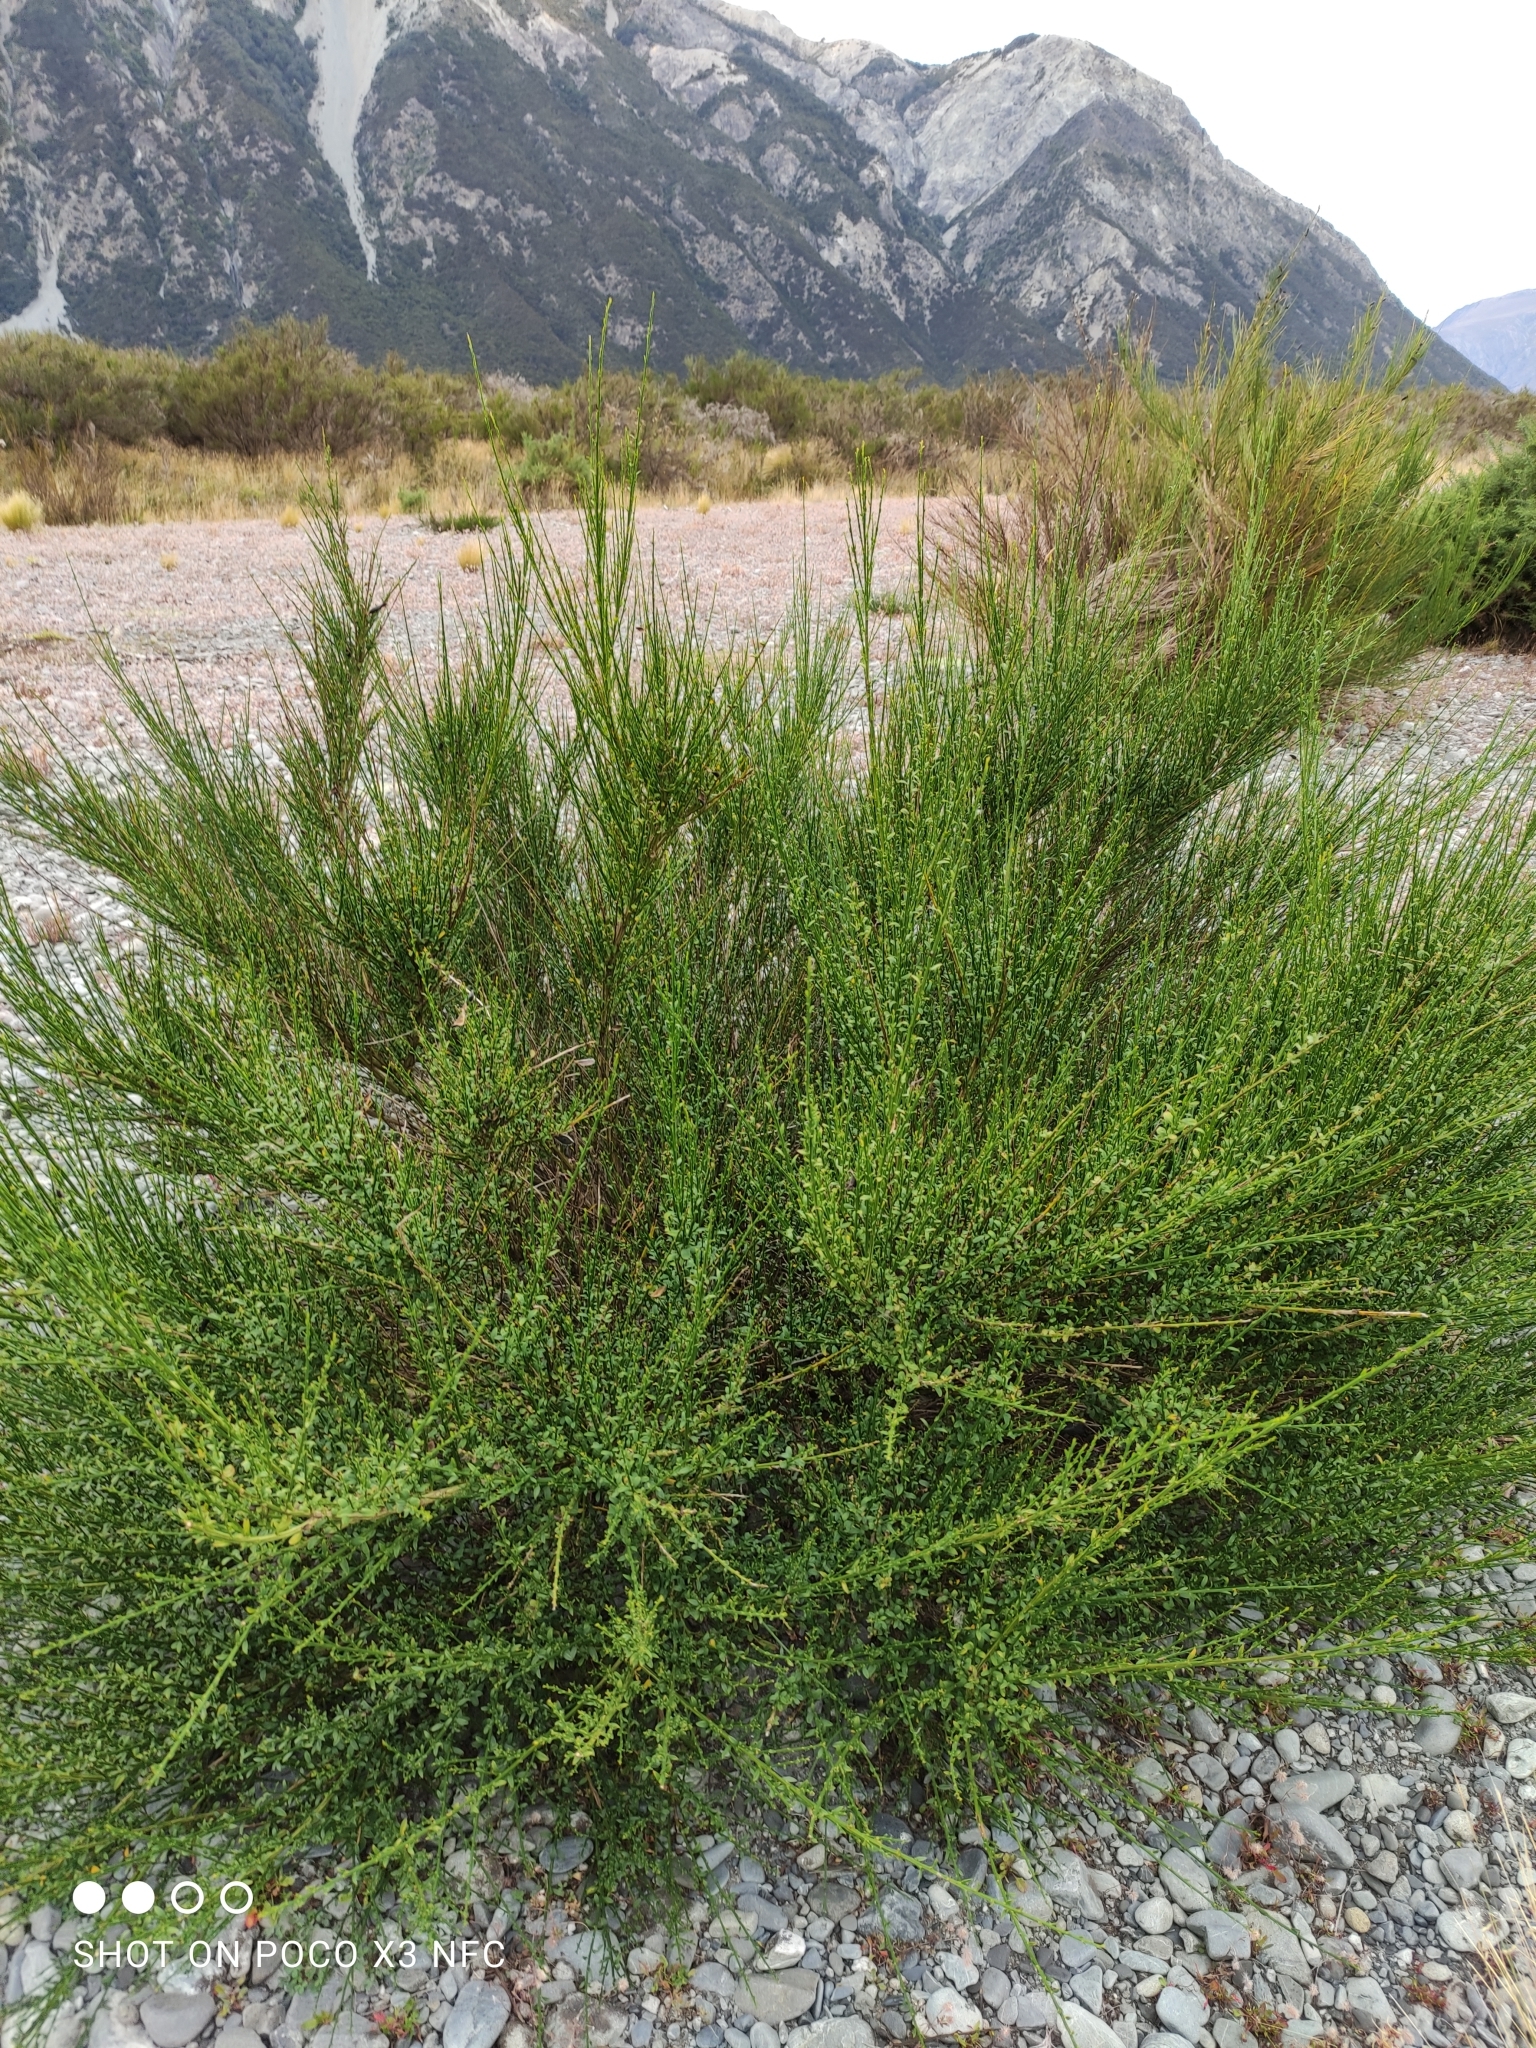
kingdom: Plantae
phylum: Tracheophyta
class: Magnoliopsida
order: Fabales
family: Fabaceae
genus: Cytisus
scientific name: Cytisus scoparius
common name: Scotch broom
